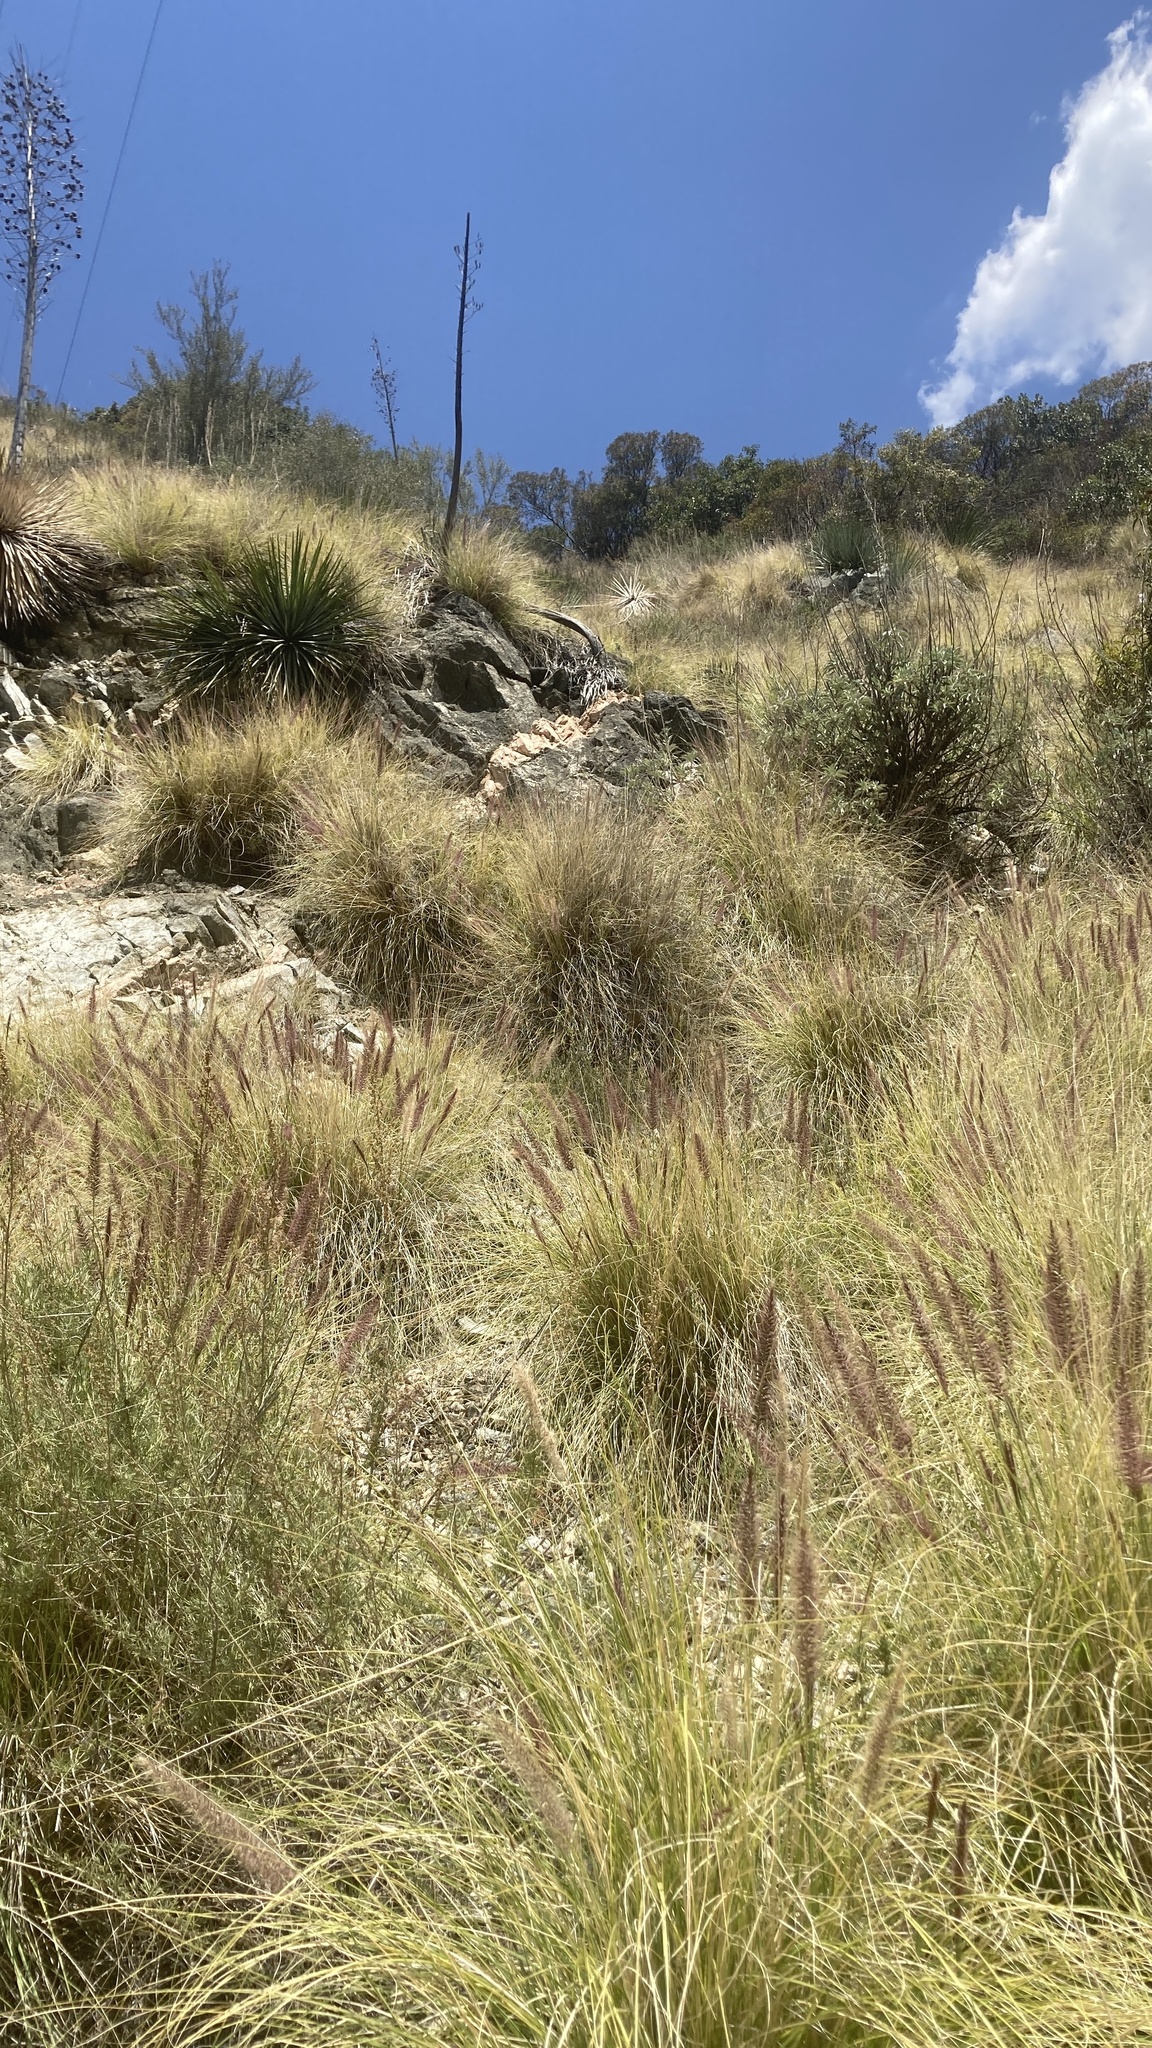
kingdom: Plantae
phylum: Tracheophyta
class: Liliopsida
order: Poales
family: Poaceae
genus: Cenchrus
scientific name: Cenchrus setaceus
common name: Crimson fountaingrass
